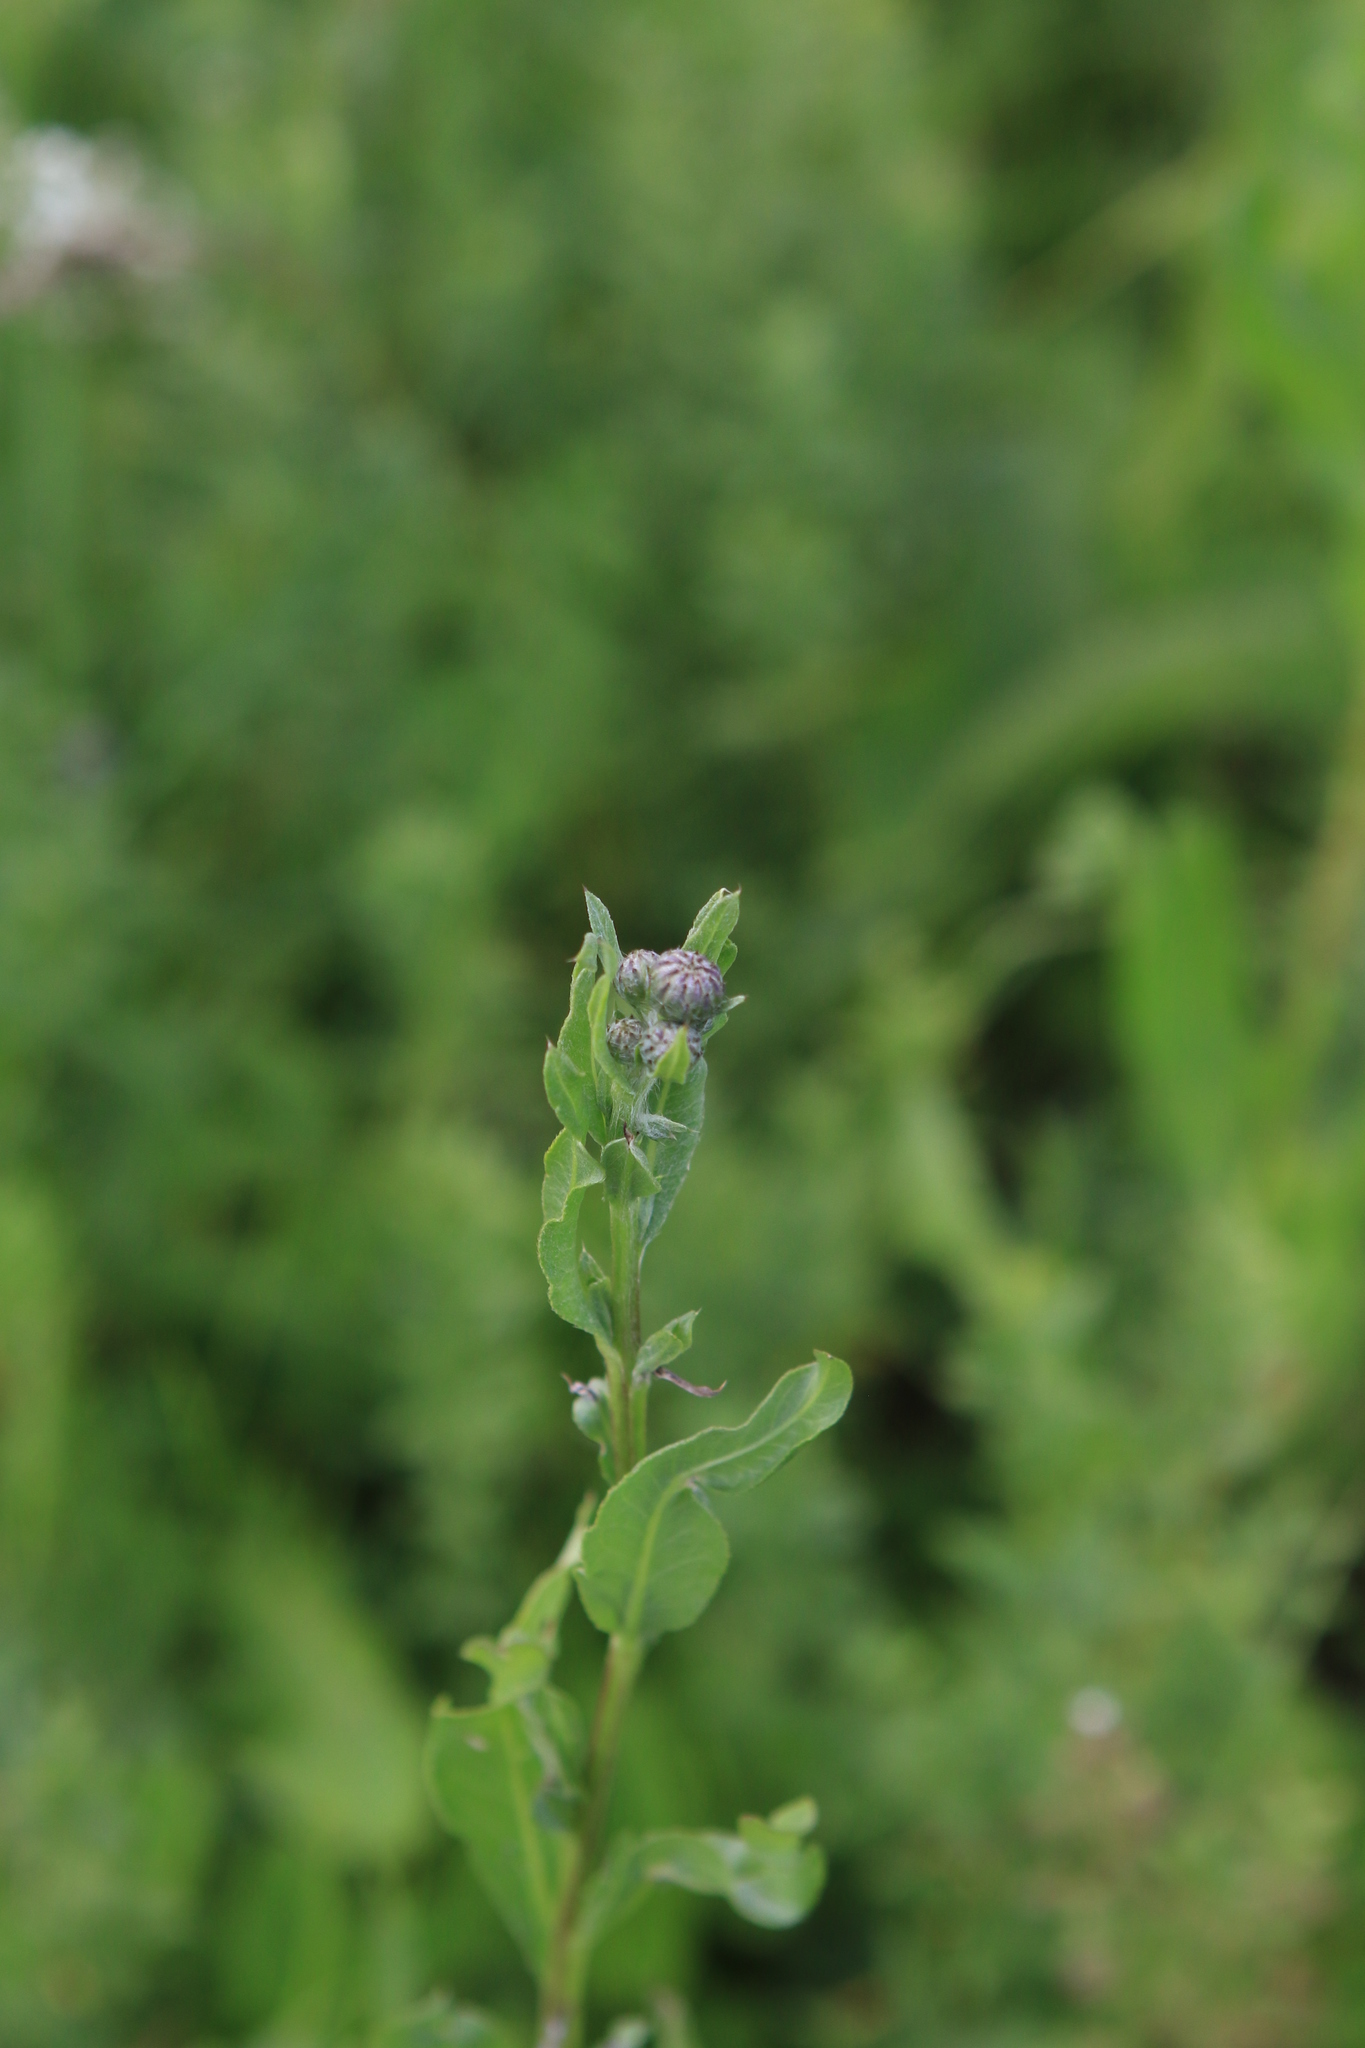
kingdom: Plantae
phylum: Tracheophyta
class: Magnoliopsida
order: Asterales
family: Asteraceae
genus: Cirsium
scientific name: Cirsium arvense
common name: Creeping thistle
